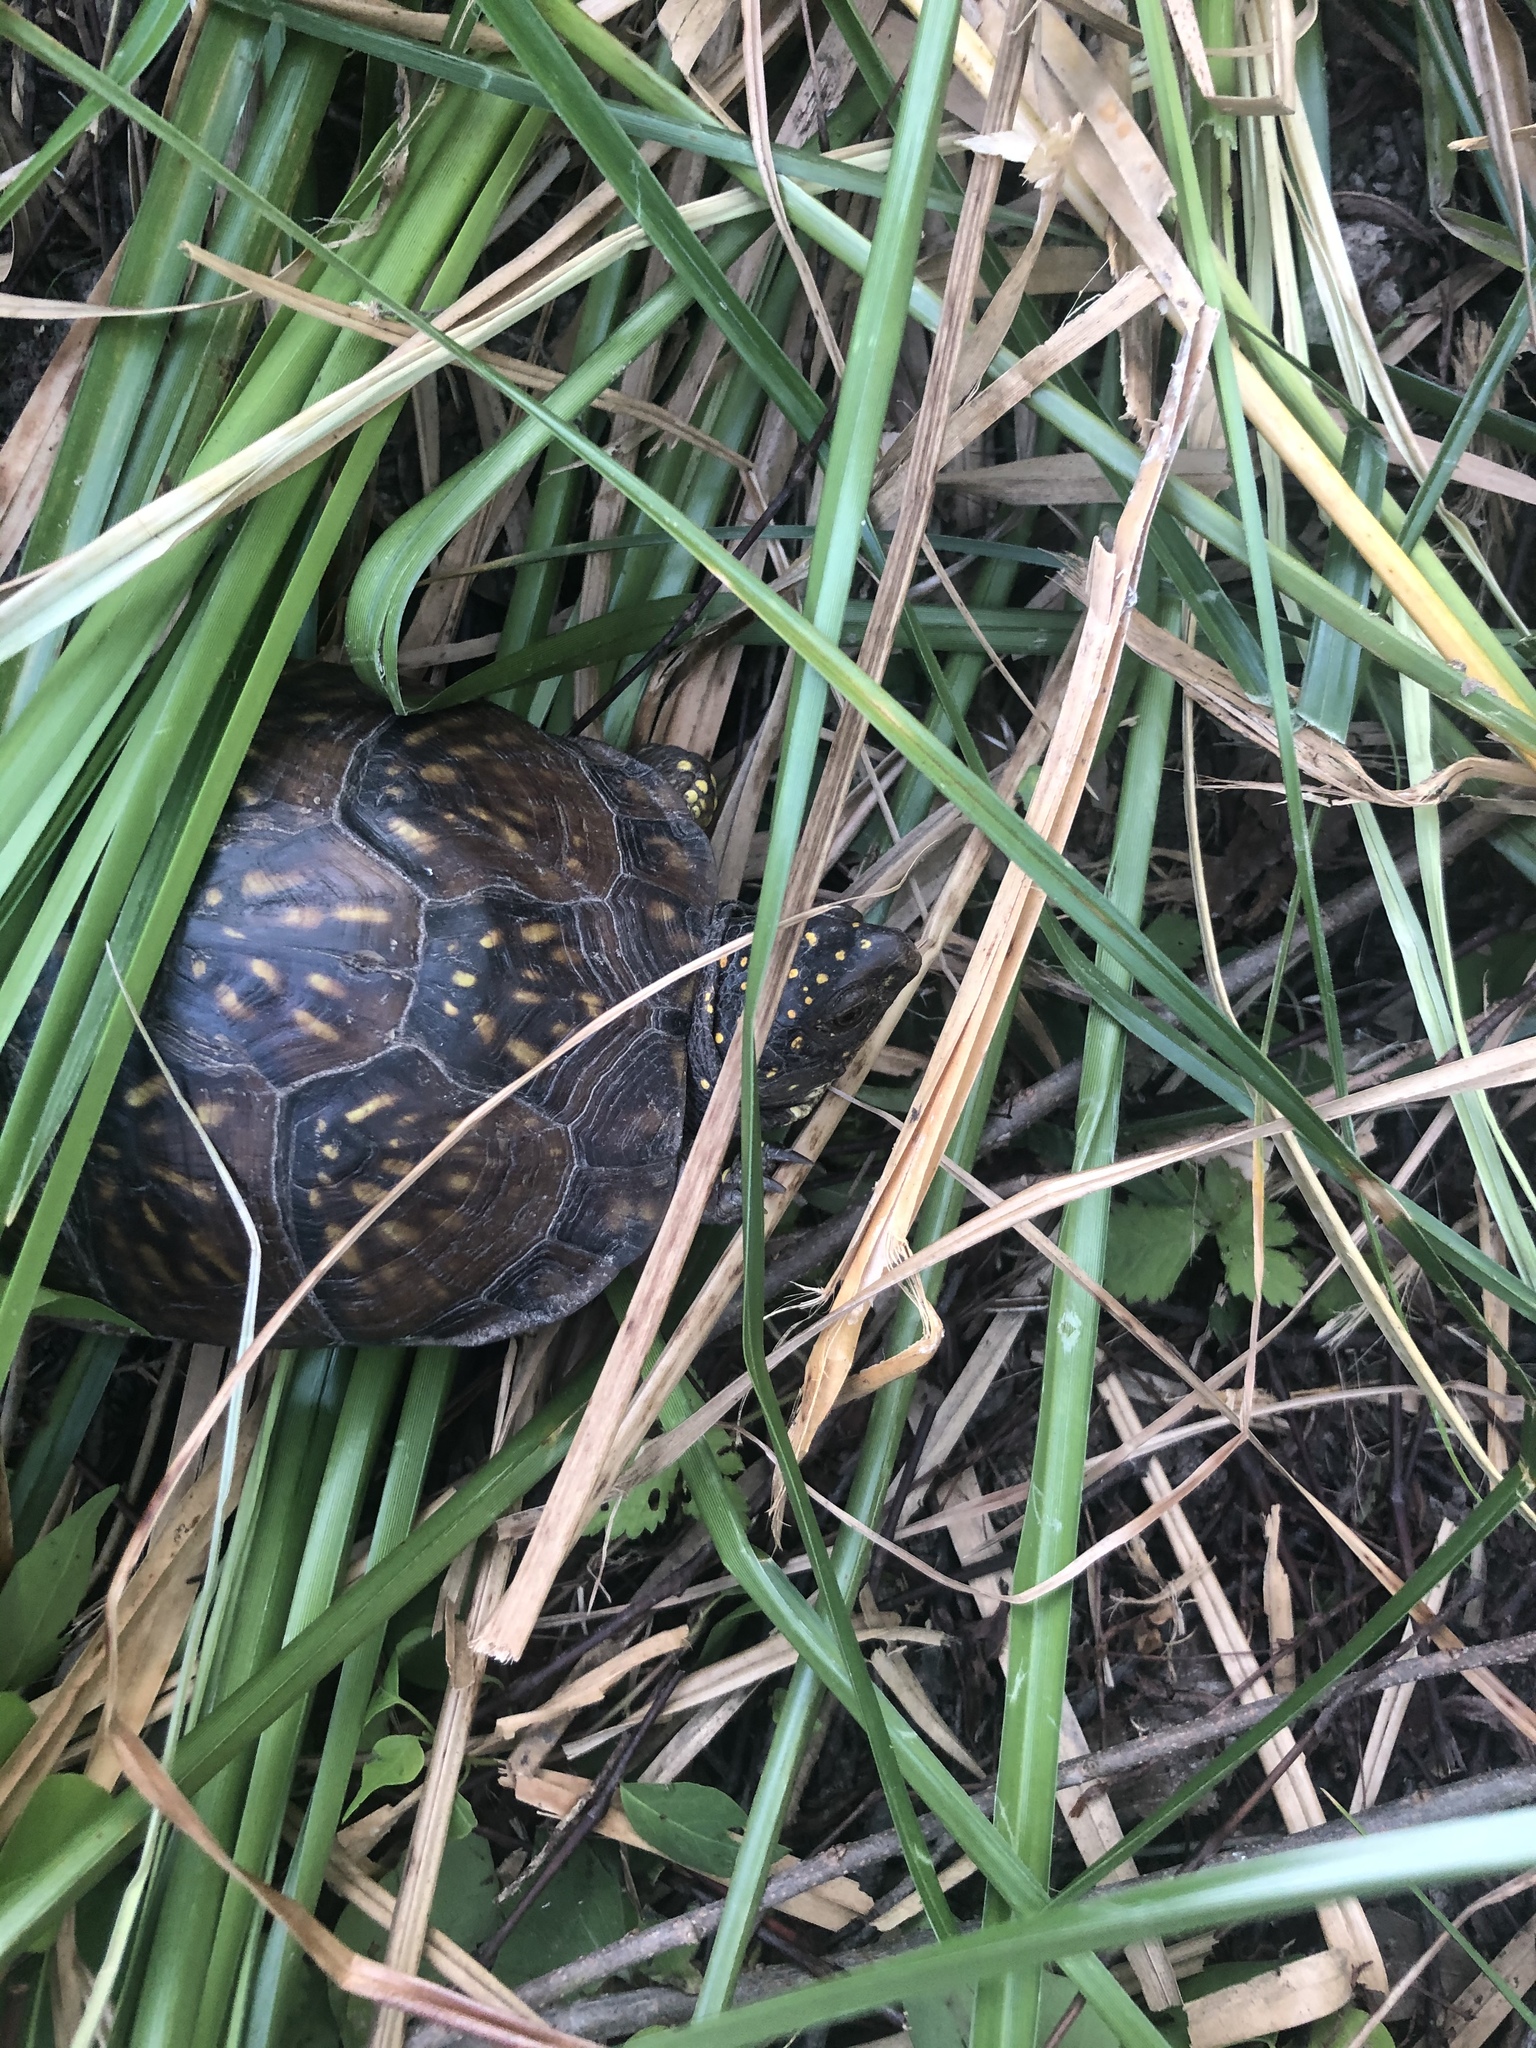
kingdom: Animalia
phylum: Chordata
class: Testudines
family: Emydidae
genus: Terrapene
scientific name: Terrapene carolina
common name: Common box turtle
